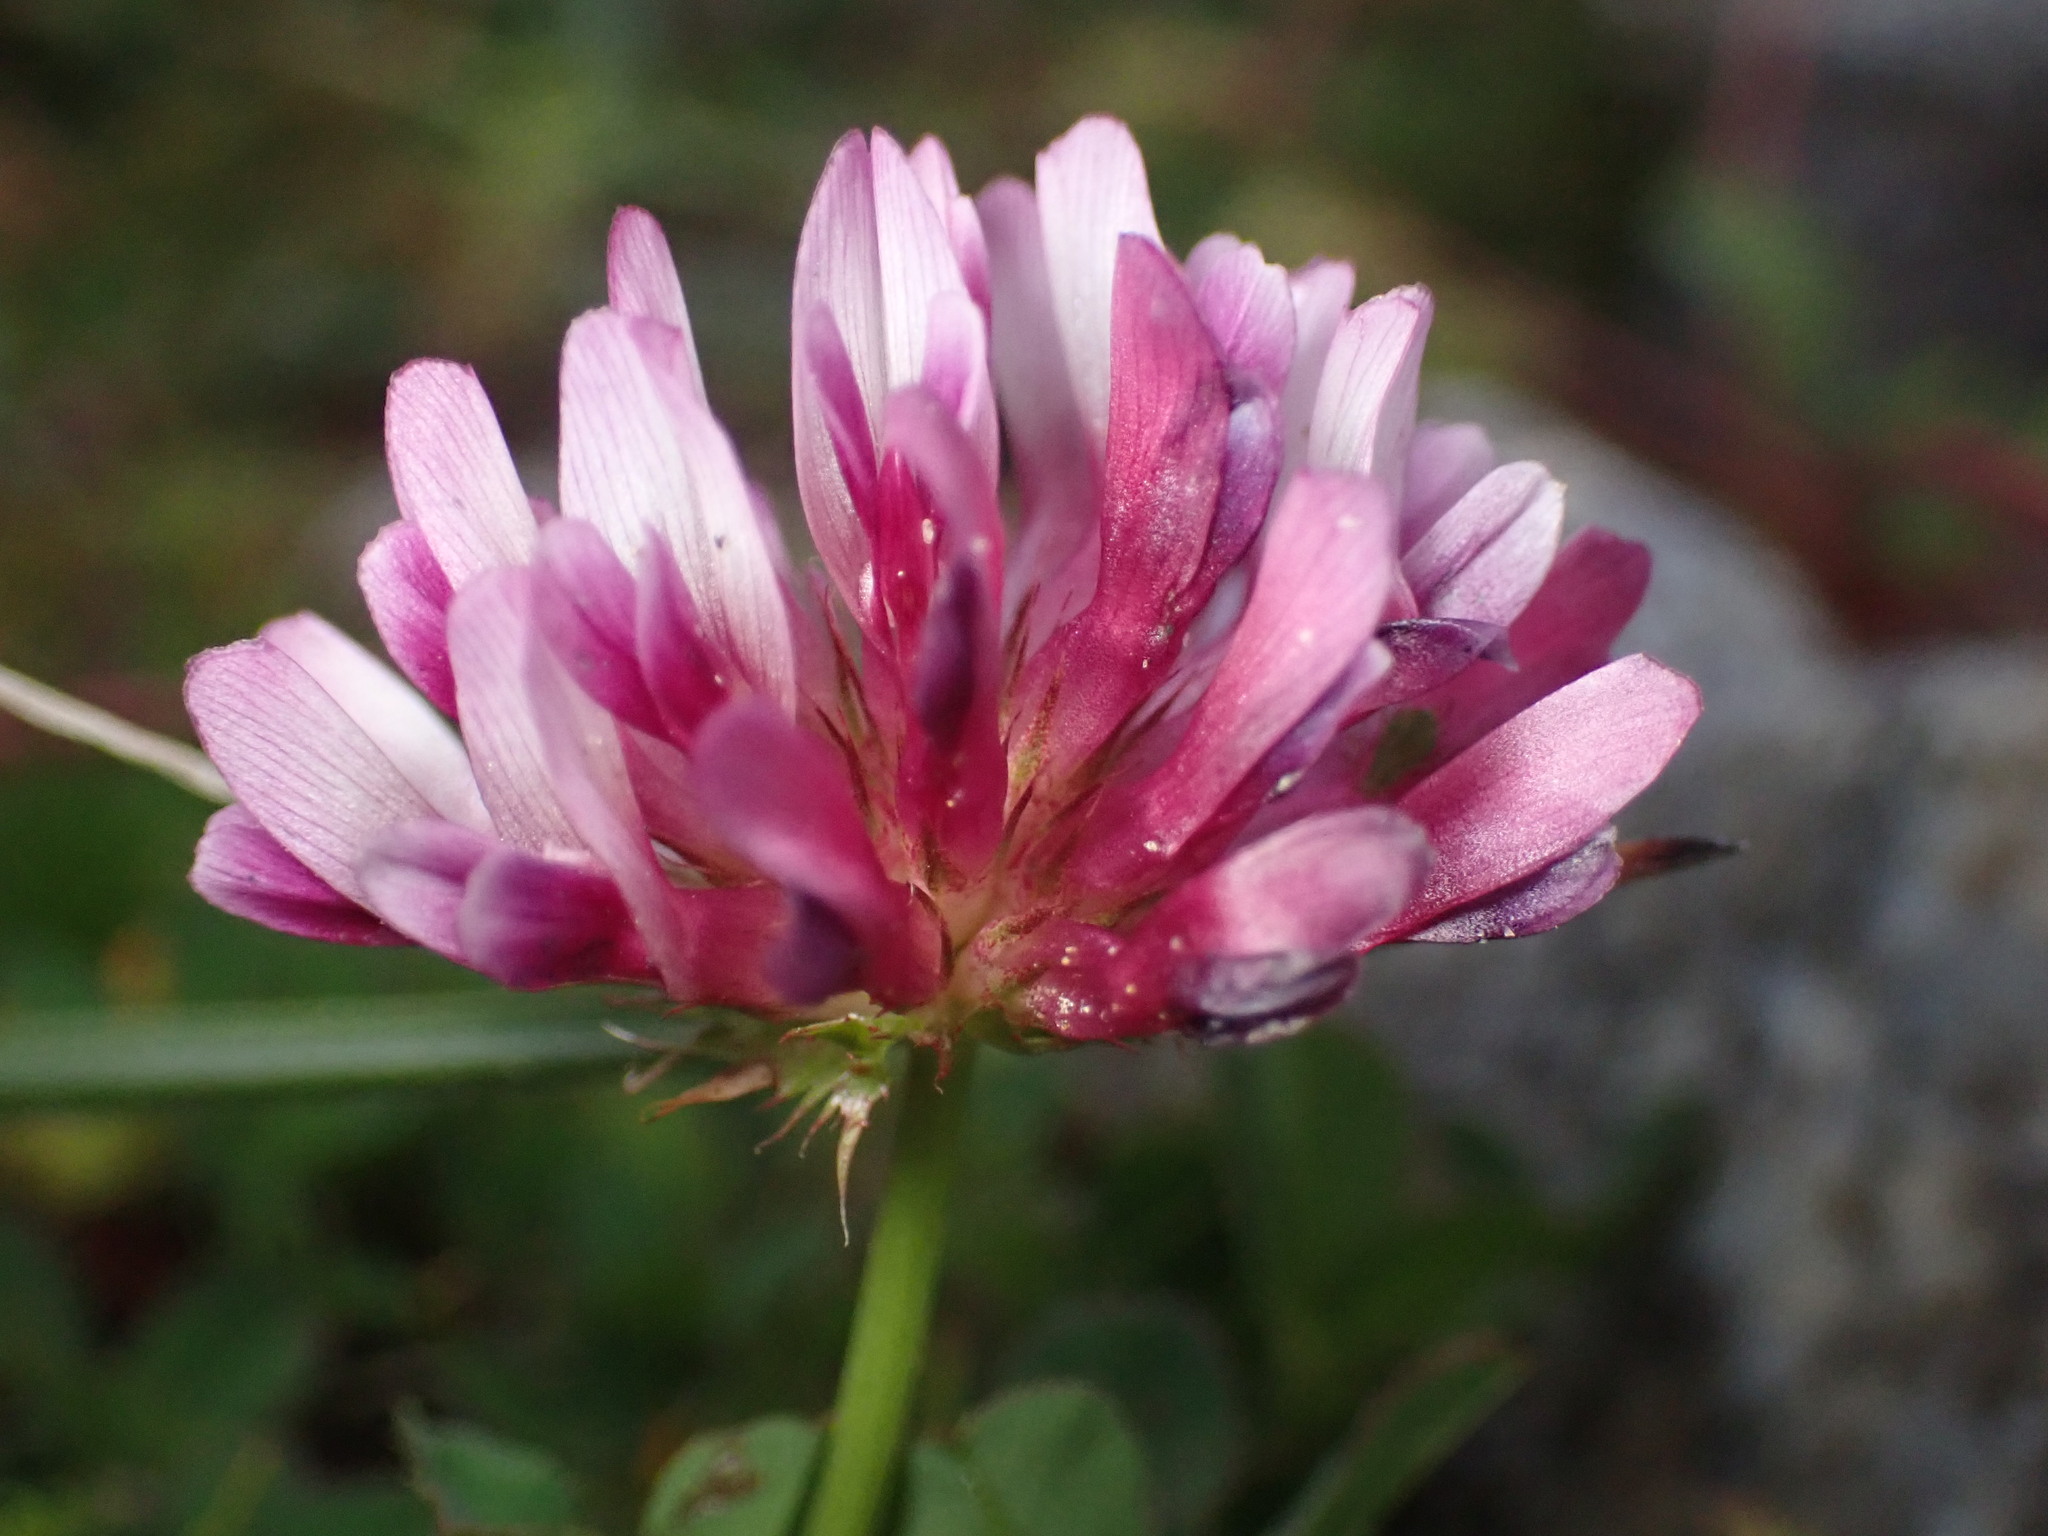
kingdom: Plantae
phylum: Tracheophyta
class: Magnoliopsida
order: Fabales
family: Fabaceae
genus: Trifolium
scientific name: Trifolium wormskioldii
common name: Springbank clover
